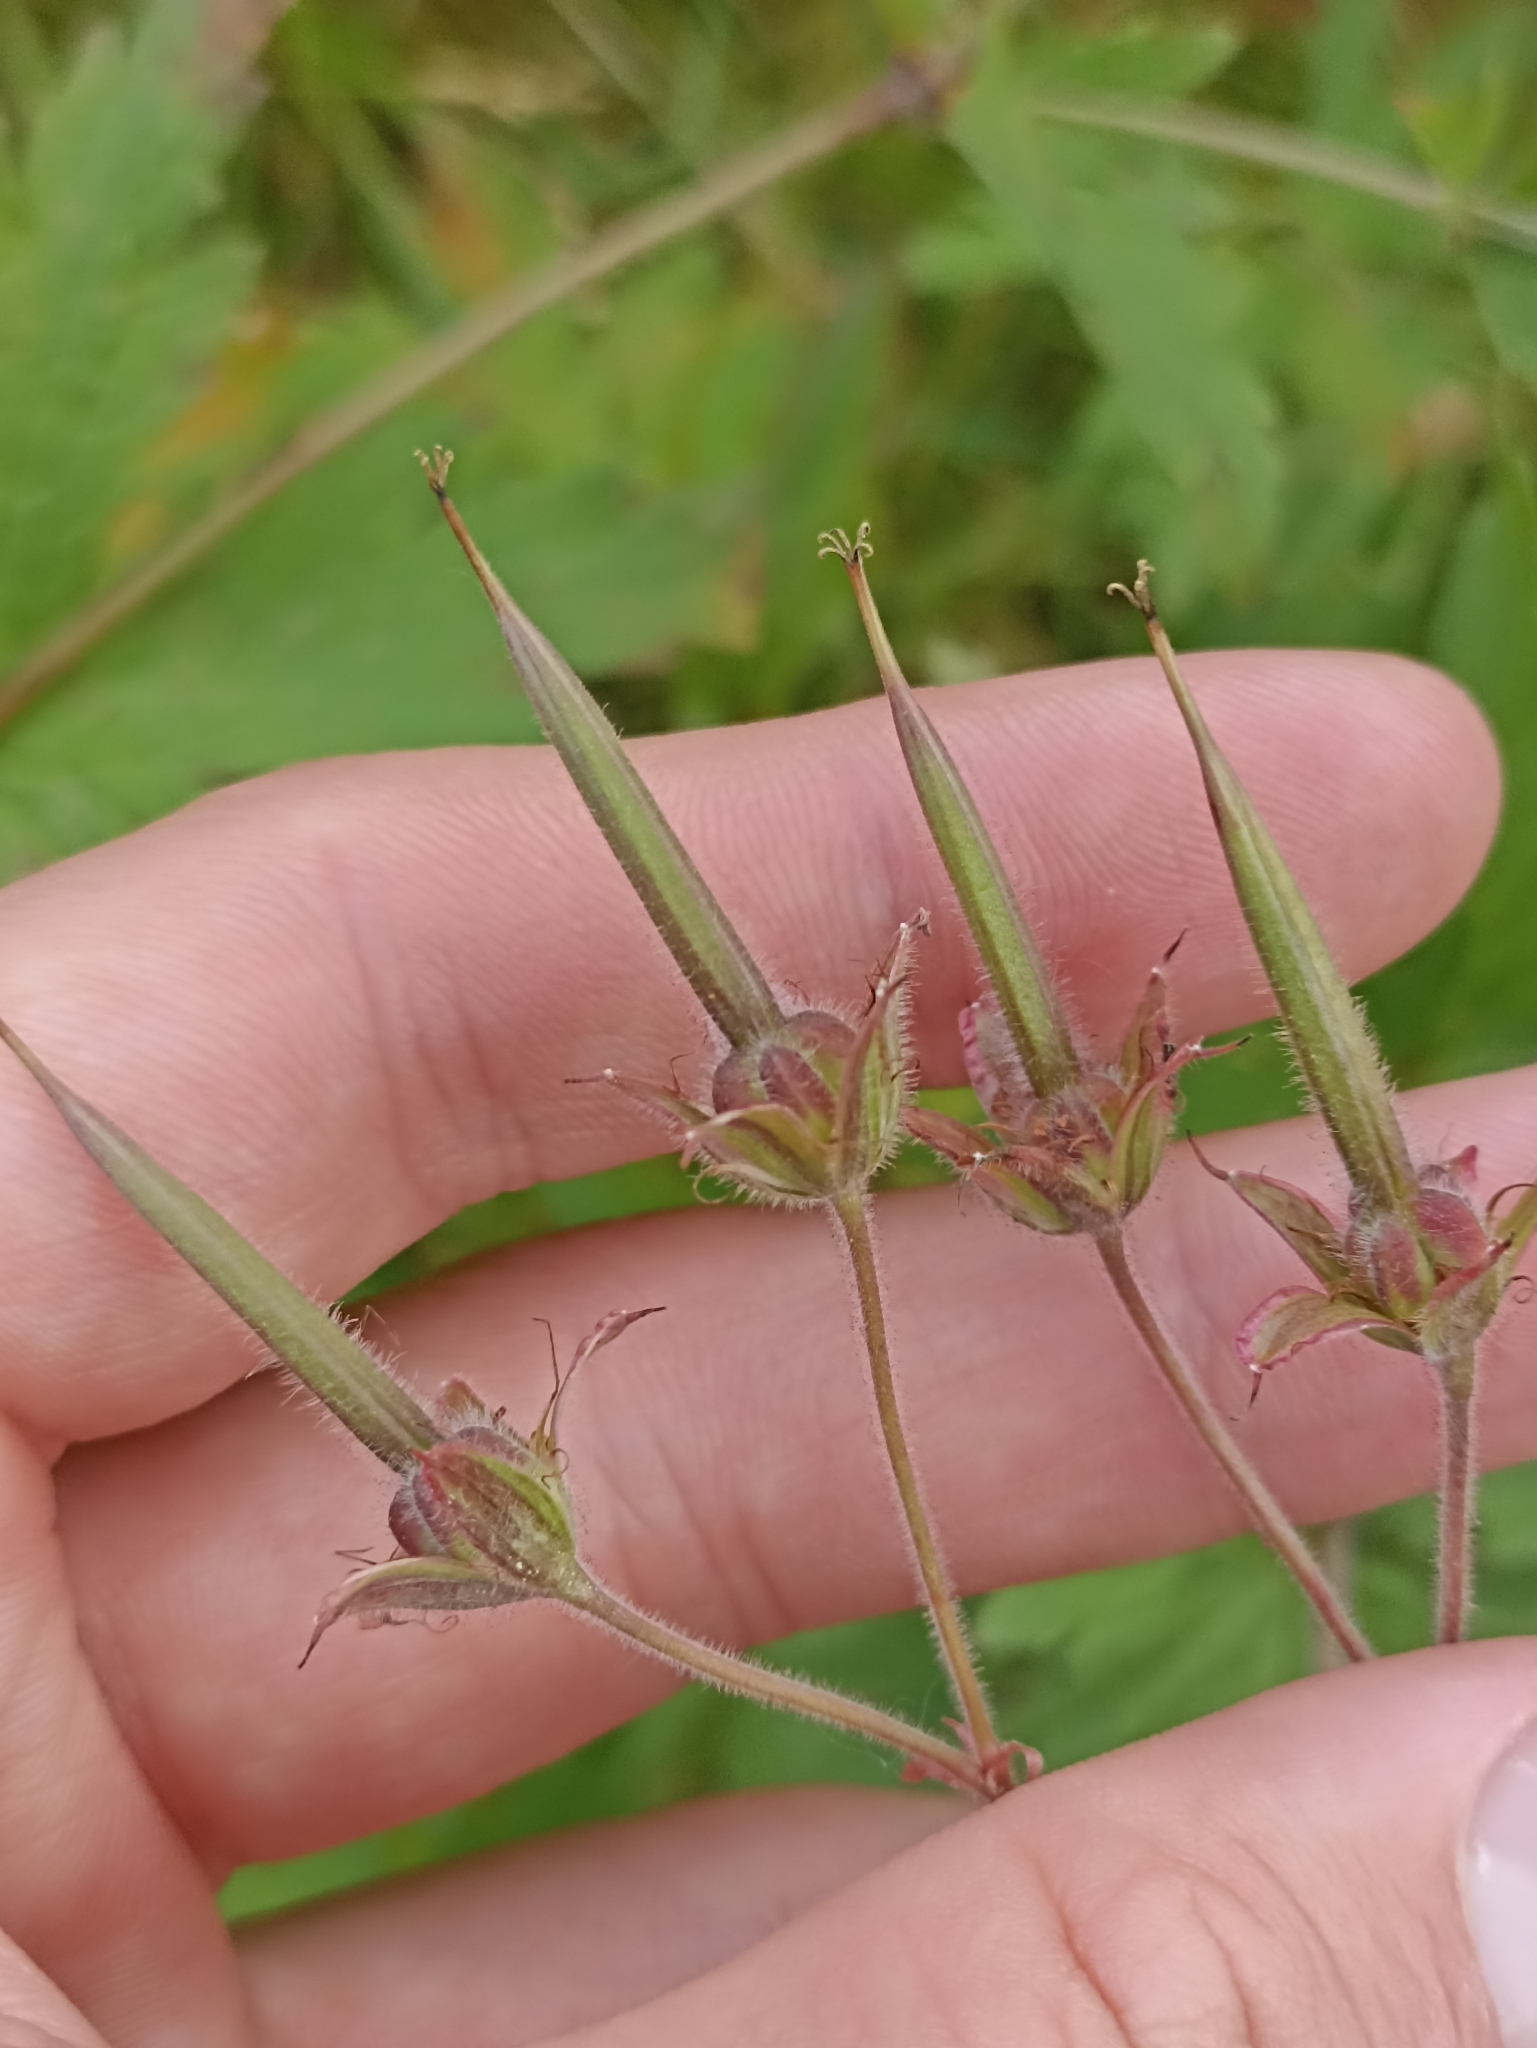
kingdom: Plantae
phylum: Tracheophyta
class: Magnoliopsida
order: Geraniales
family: Geraniaceae
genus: Geranium
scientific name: Geranium sylvaticum
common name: Wood crane's-bill
